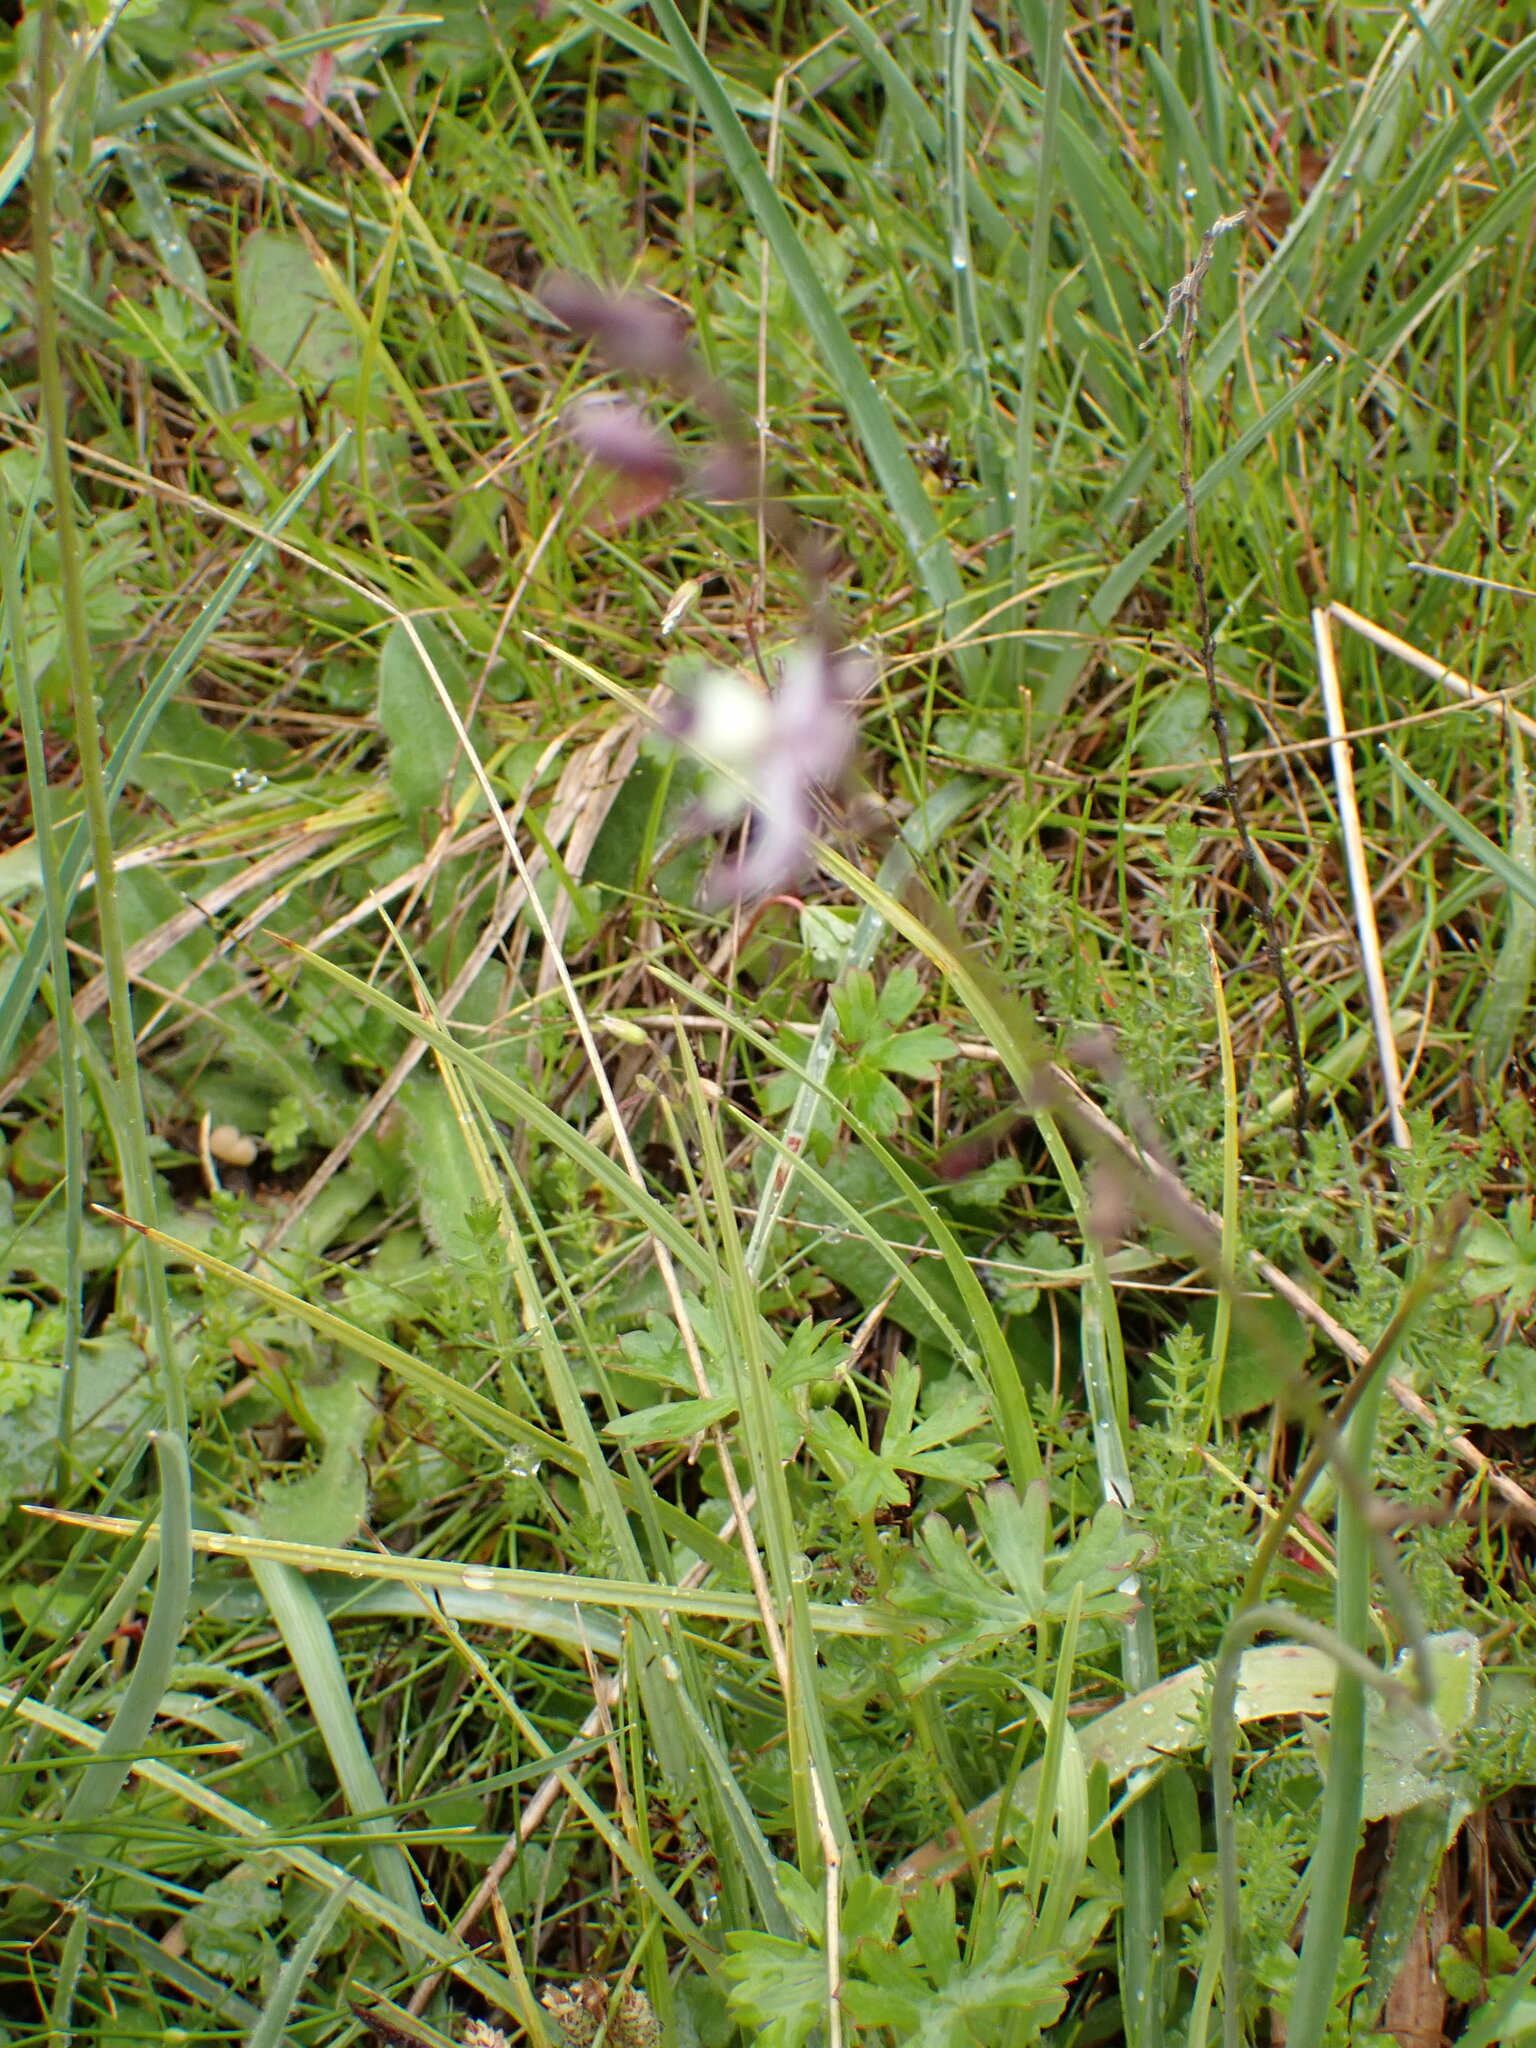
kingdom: Plantae
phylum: Tracheophyta
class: Liliopsida
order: Asparagales
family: Asparagaceae
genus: Arthropodium
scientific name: Arthropodium milleflorum
